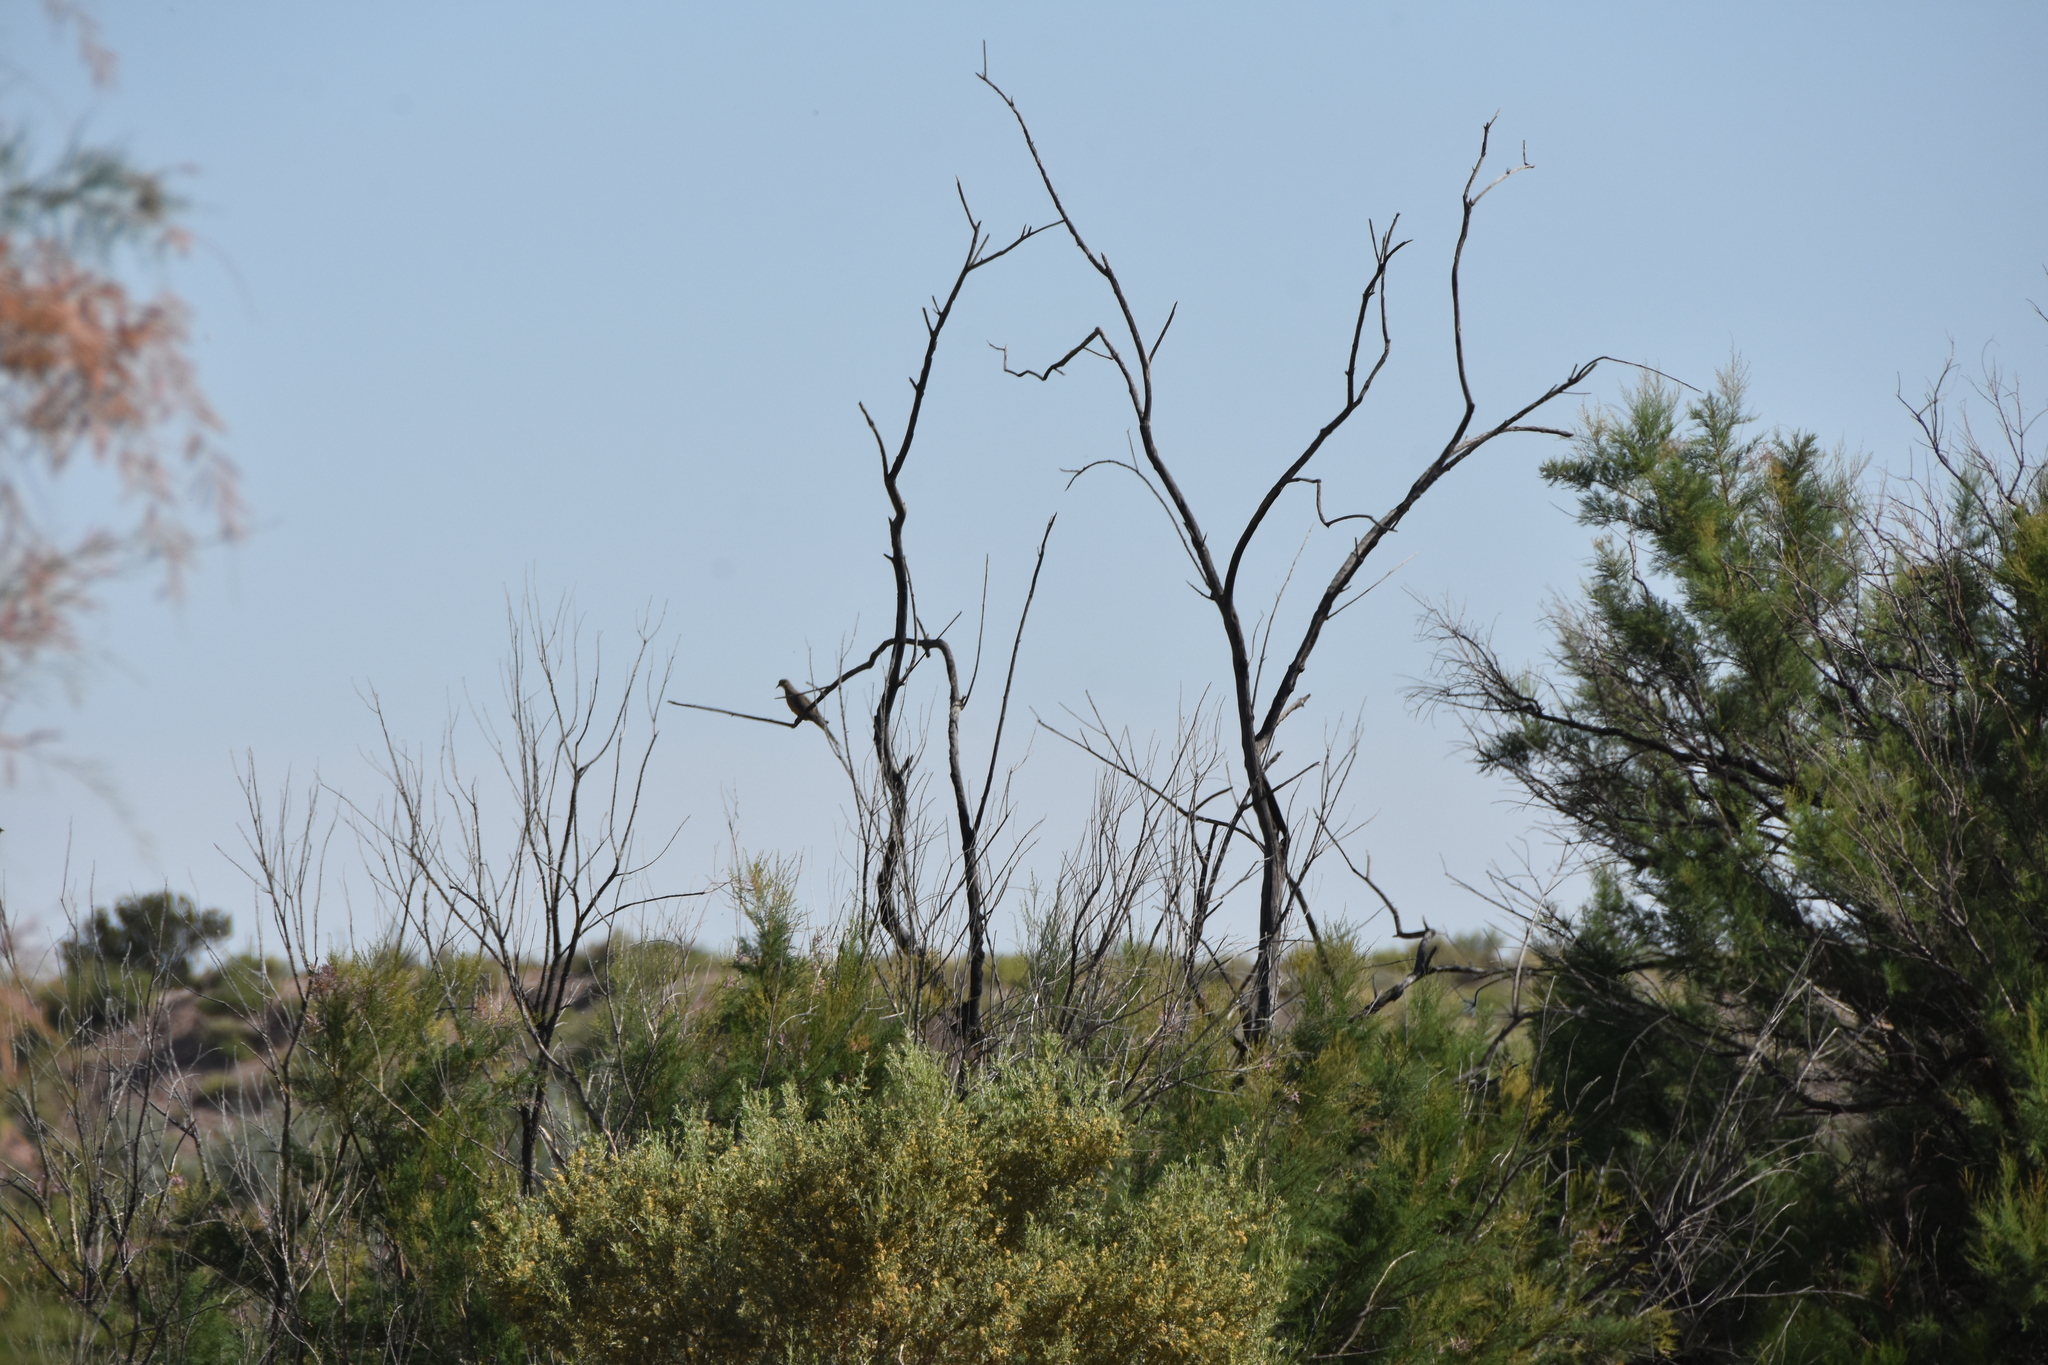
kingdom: Animalia
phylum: Chordata
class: Aves
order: Columbiformes
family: Columbidae
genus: Zenaida
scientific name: Zenaida macroura
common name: Mourning dove
